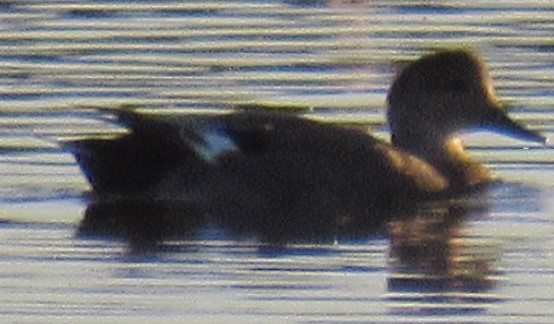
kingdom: Animalia
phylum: Chordata
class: Aves
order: Anseriformes
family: Anatidae
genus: Mareca
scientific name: Mareca strepera
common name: Gadwall
